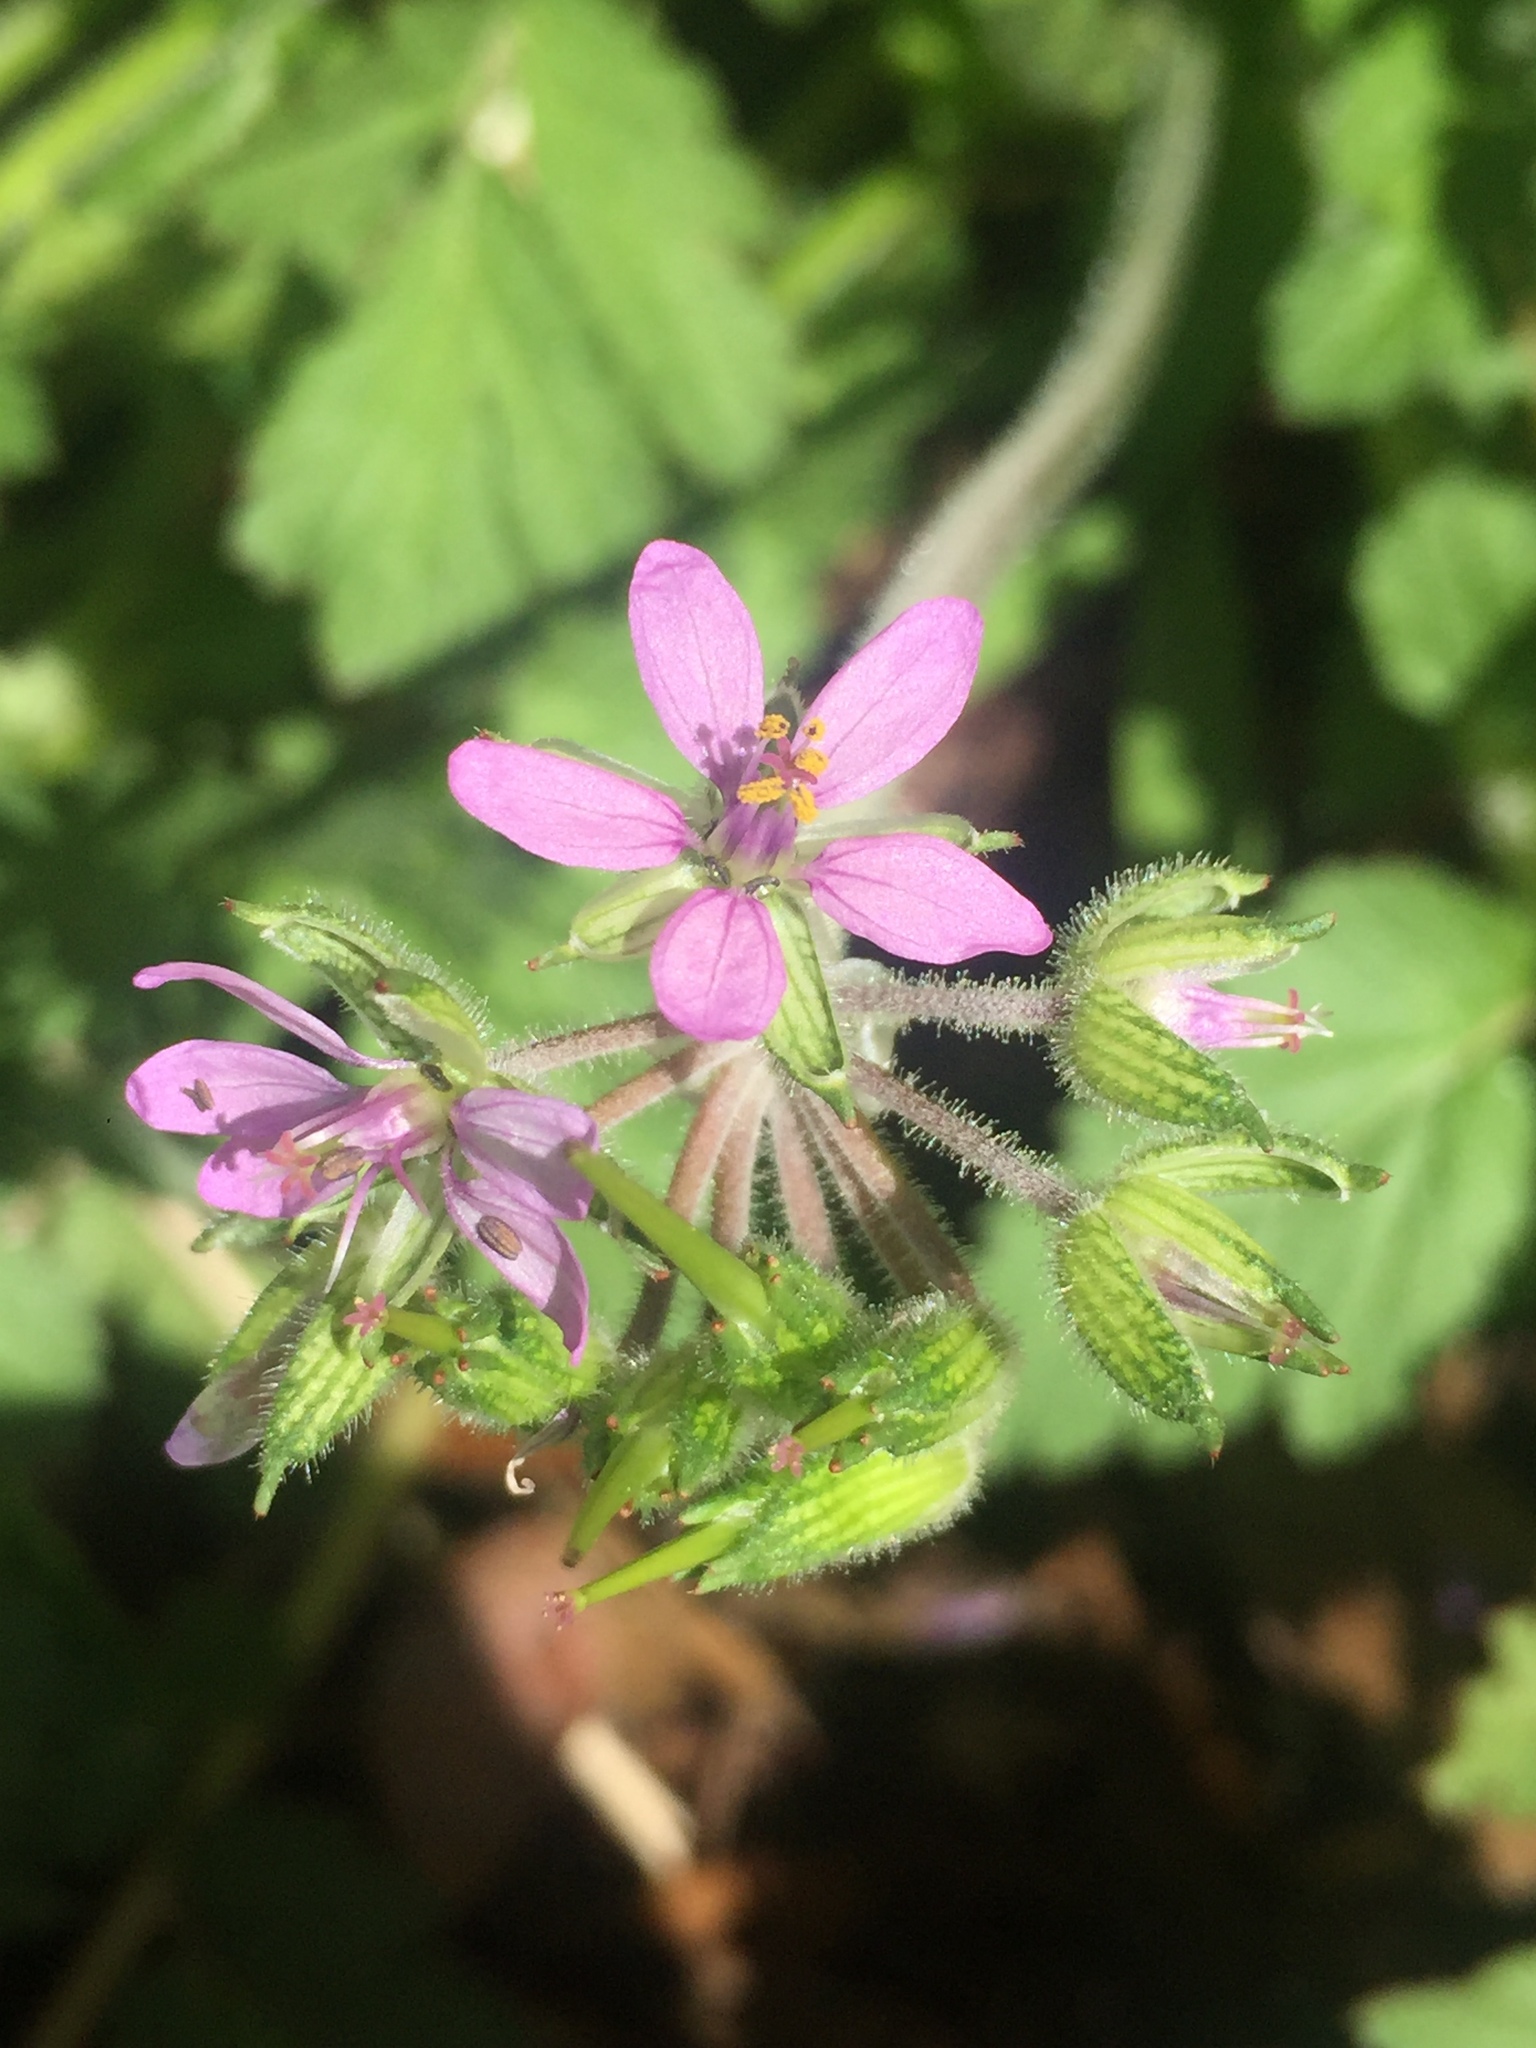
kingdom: Plantae
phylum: Tracheophyta
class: Magnoliopsida
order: Geraniales
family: Geraniaceae
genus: Erodium
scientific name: Erodium moschatum
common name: Musk stork's-bill
